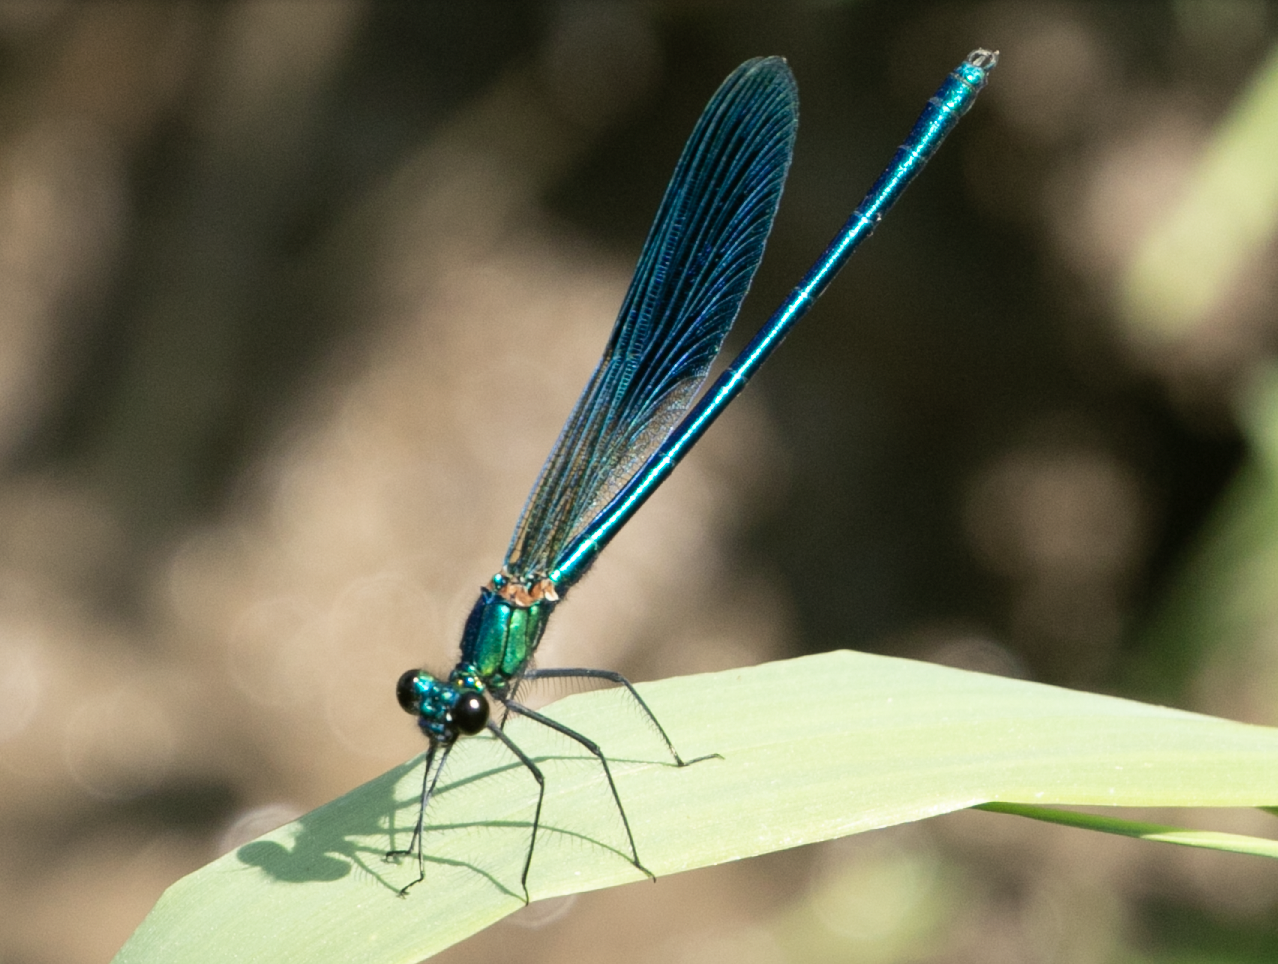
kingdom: Animalia
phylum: Arthropoda
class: Insecta
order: Odonata
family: Calopterygidae
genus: Calopteryx
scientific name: Calopteryx splendens
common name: Banded demoiselle
